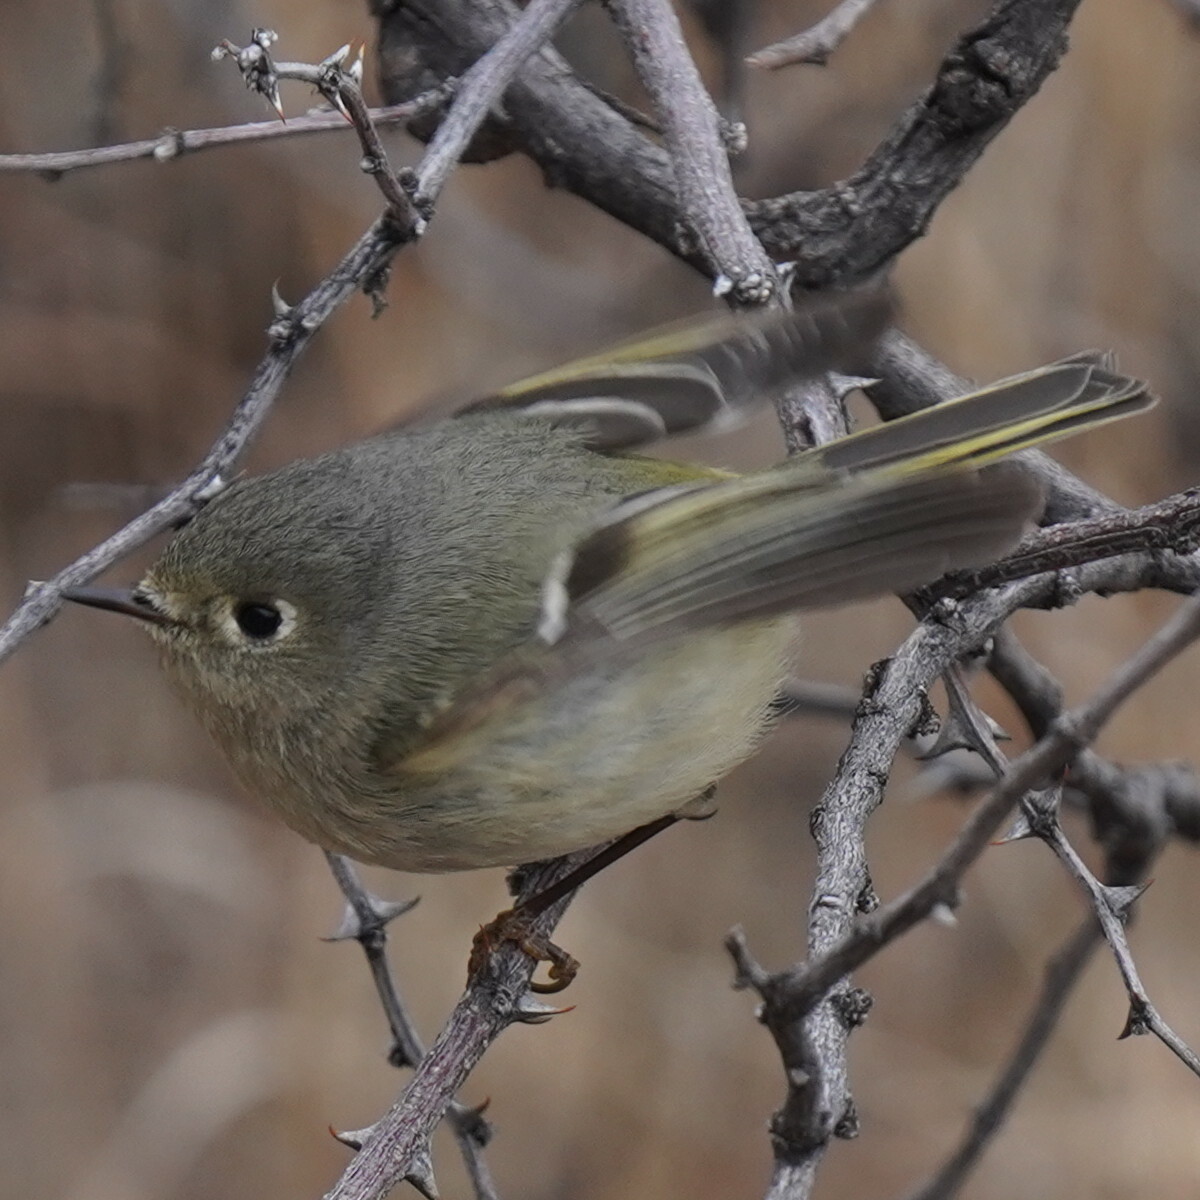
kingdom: Animalia
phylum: Chordata
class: Aves
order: Passeriformes
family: Regulidae
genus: Regulus
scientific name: Regulus calendula
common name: Ruby-crowned kinglet
